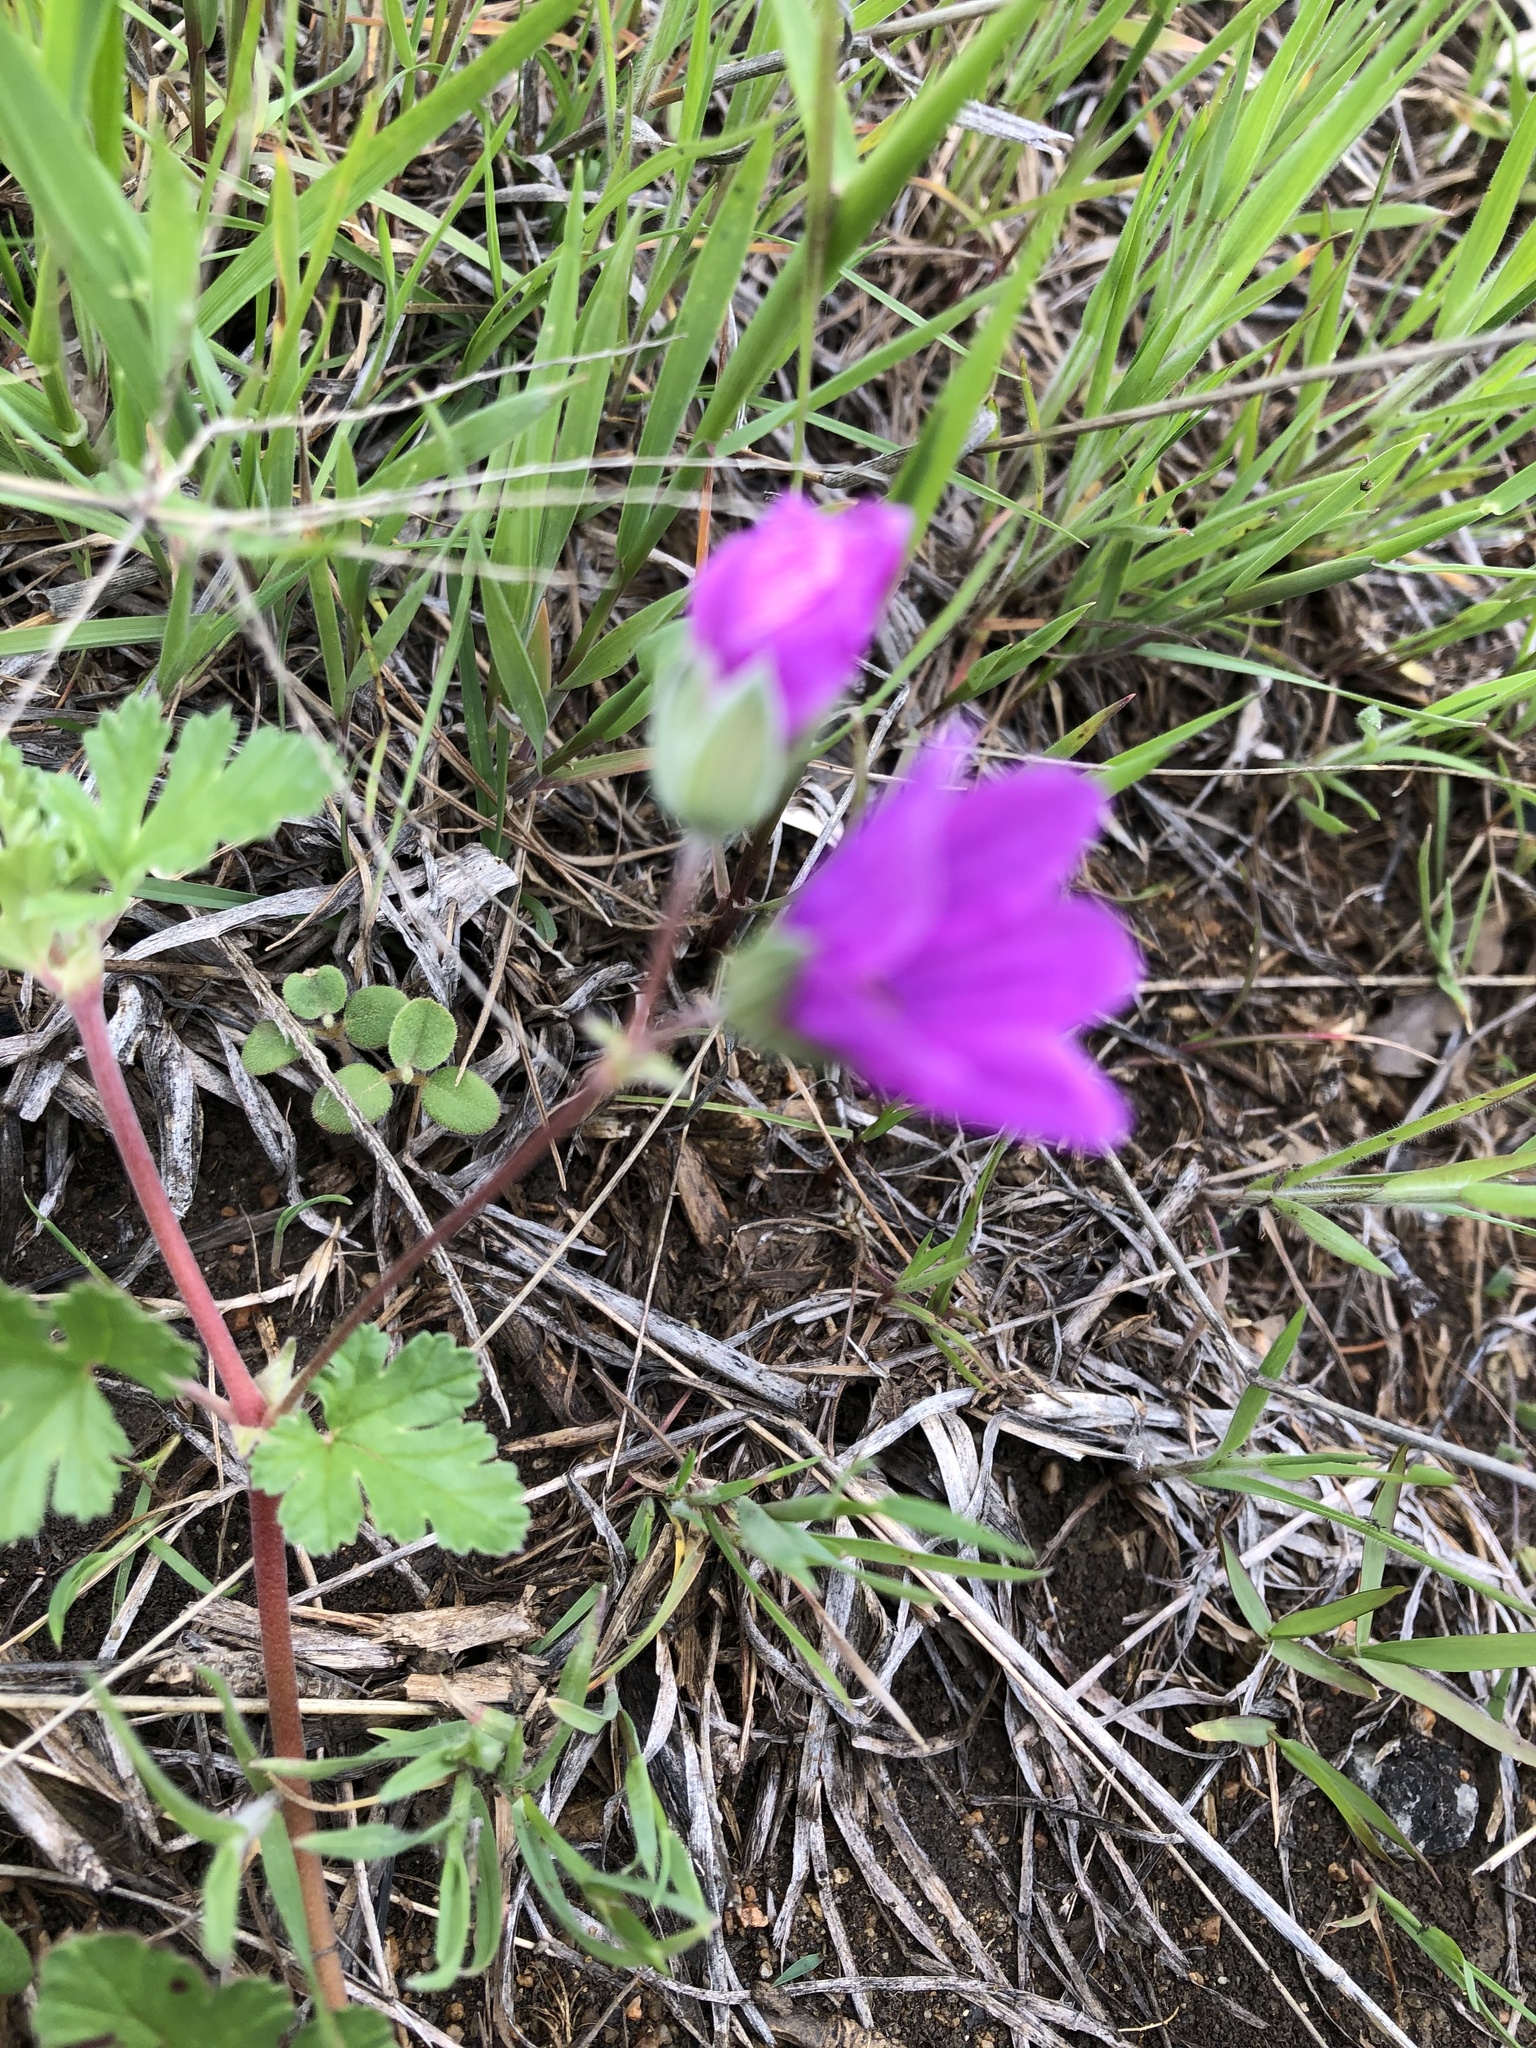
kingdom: Plantae
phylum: Tracheophyta
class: Magnoliopsida
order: Geraniales
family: Geraniaceae
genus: Erodium
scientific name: Erodium texanum
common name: Texas stork's-bill
